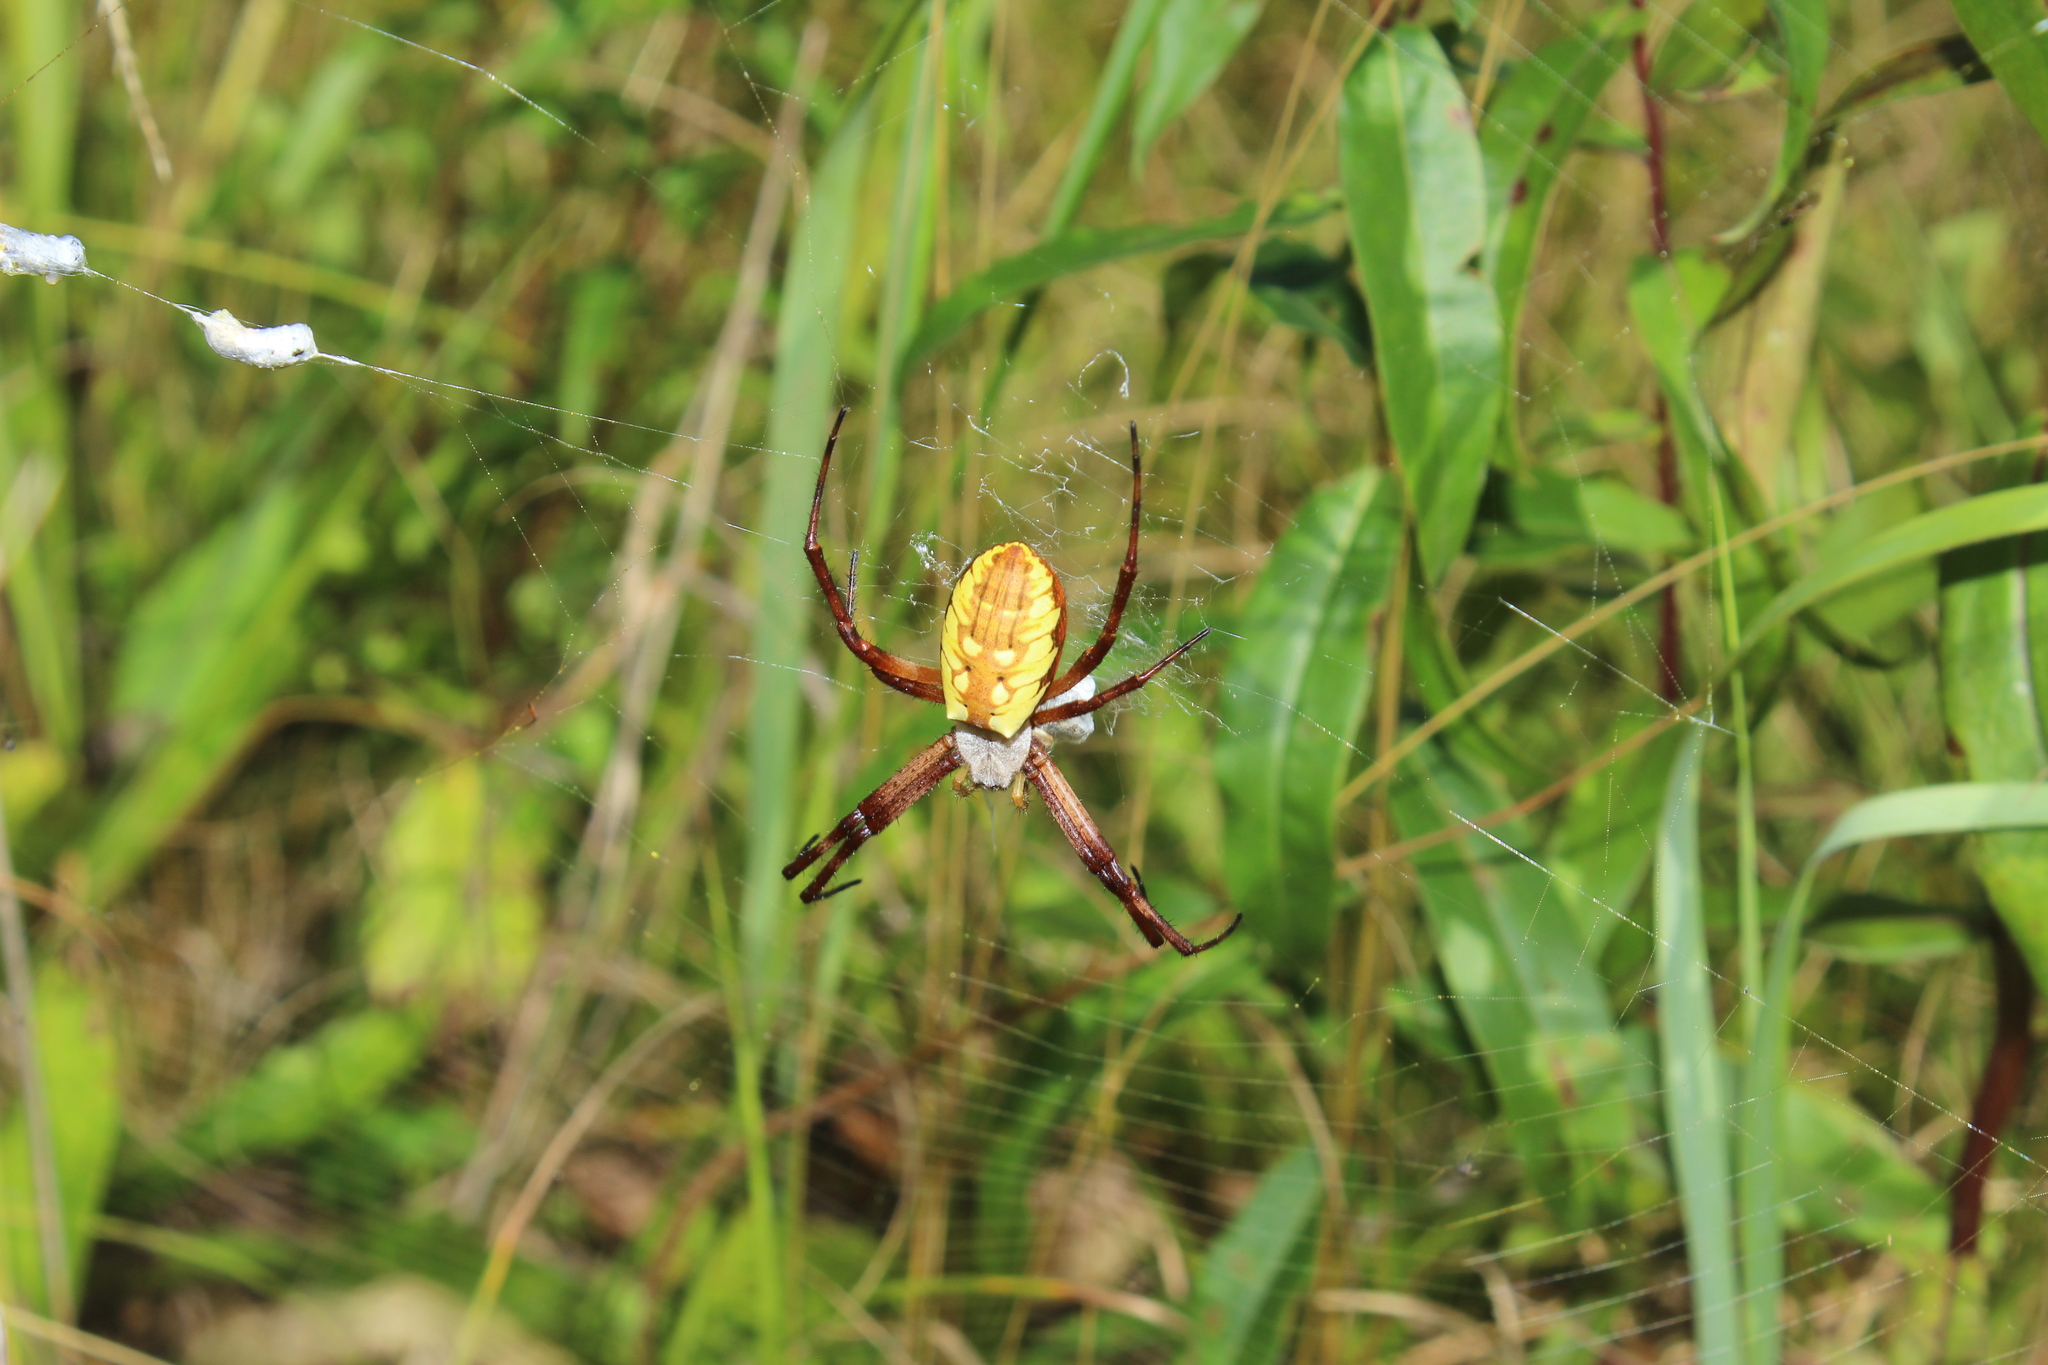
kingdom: Animalia
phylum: Arthropoda
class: Arachnida
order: Araneae
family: Araneidae
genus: Argiope
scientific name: Argiope aurantia
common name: Orb weavers
